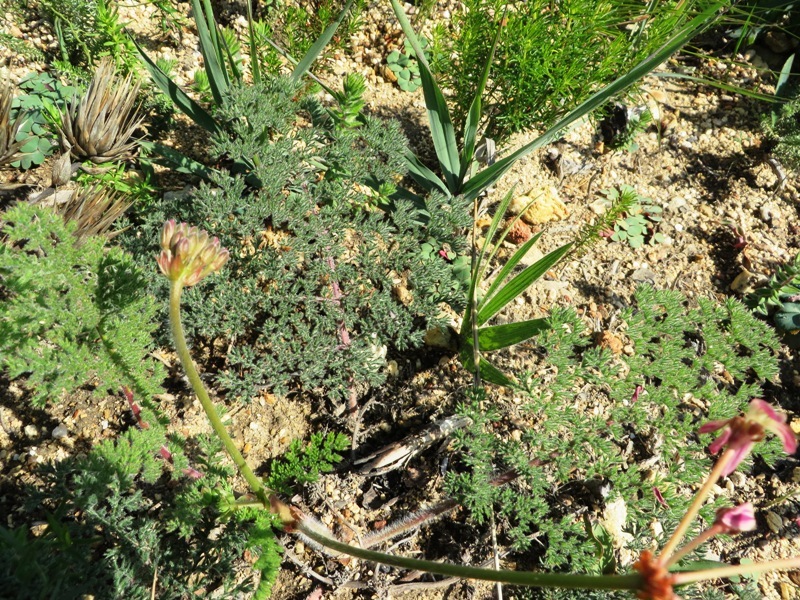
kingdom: Plantae
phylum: Tracheophyta
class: Magnoliopsida
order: Geraniales
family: Geraniaceae
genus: Pelargonium
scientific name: Pelargonium triste
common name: Night-scent pelargonium
